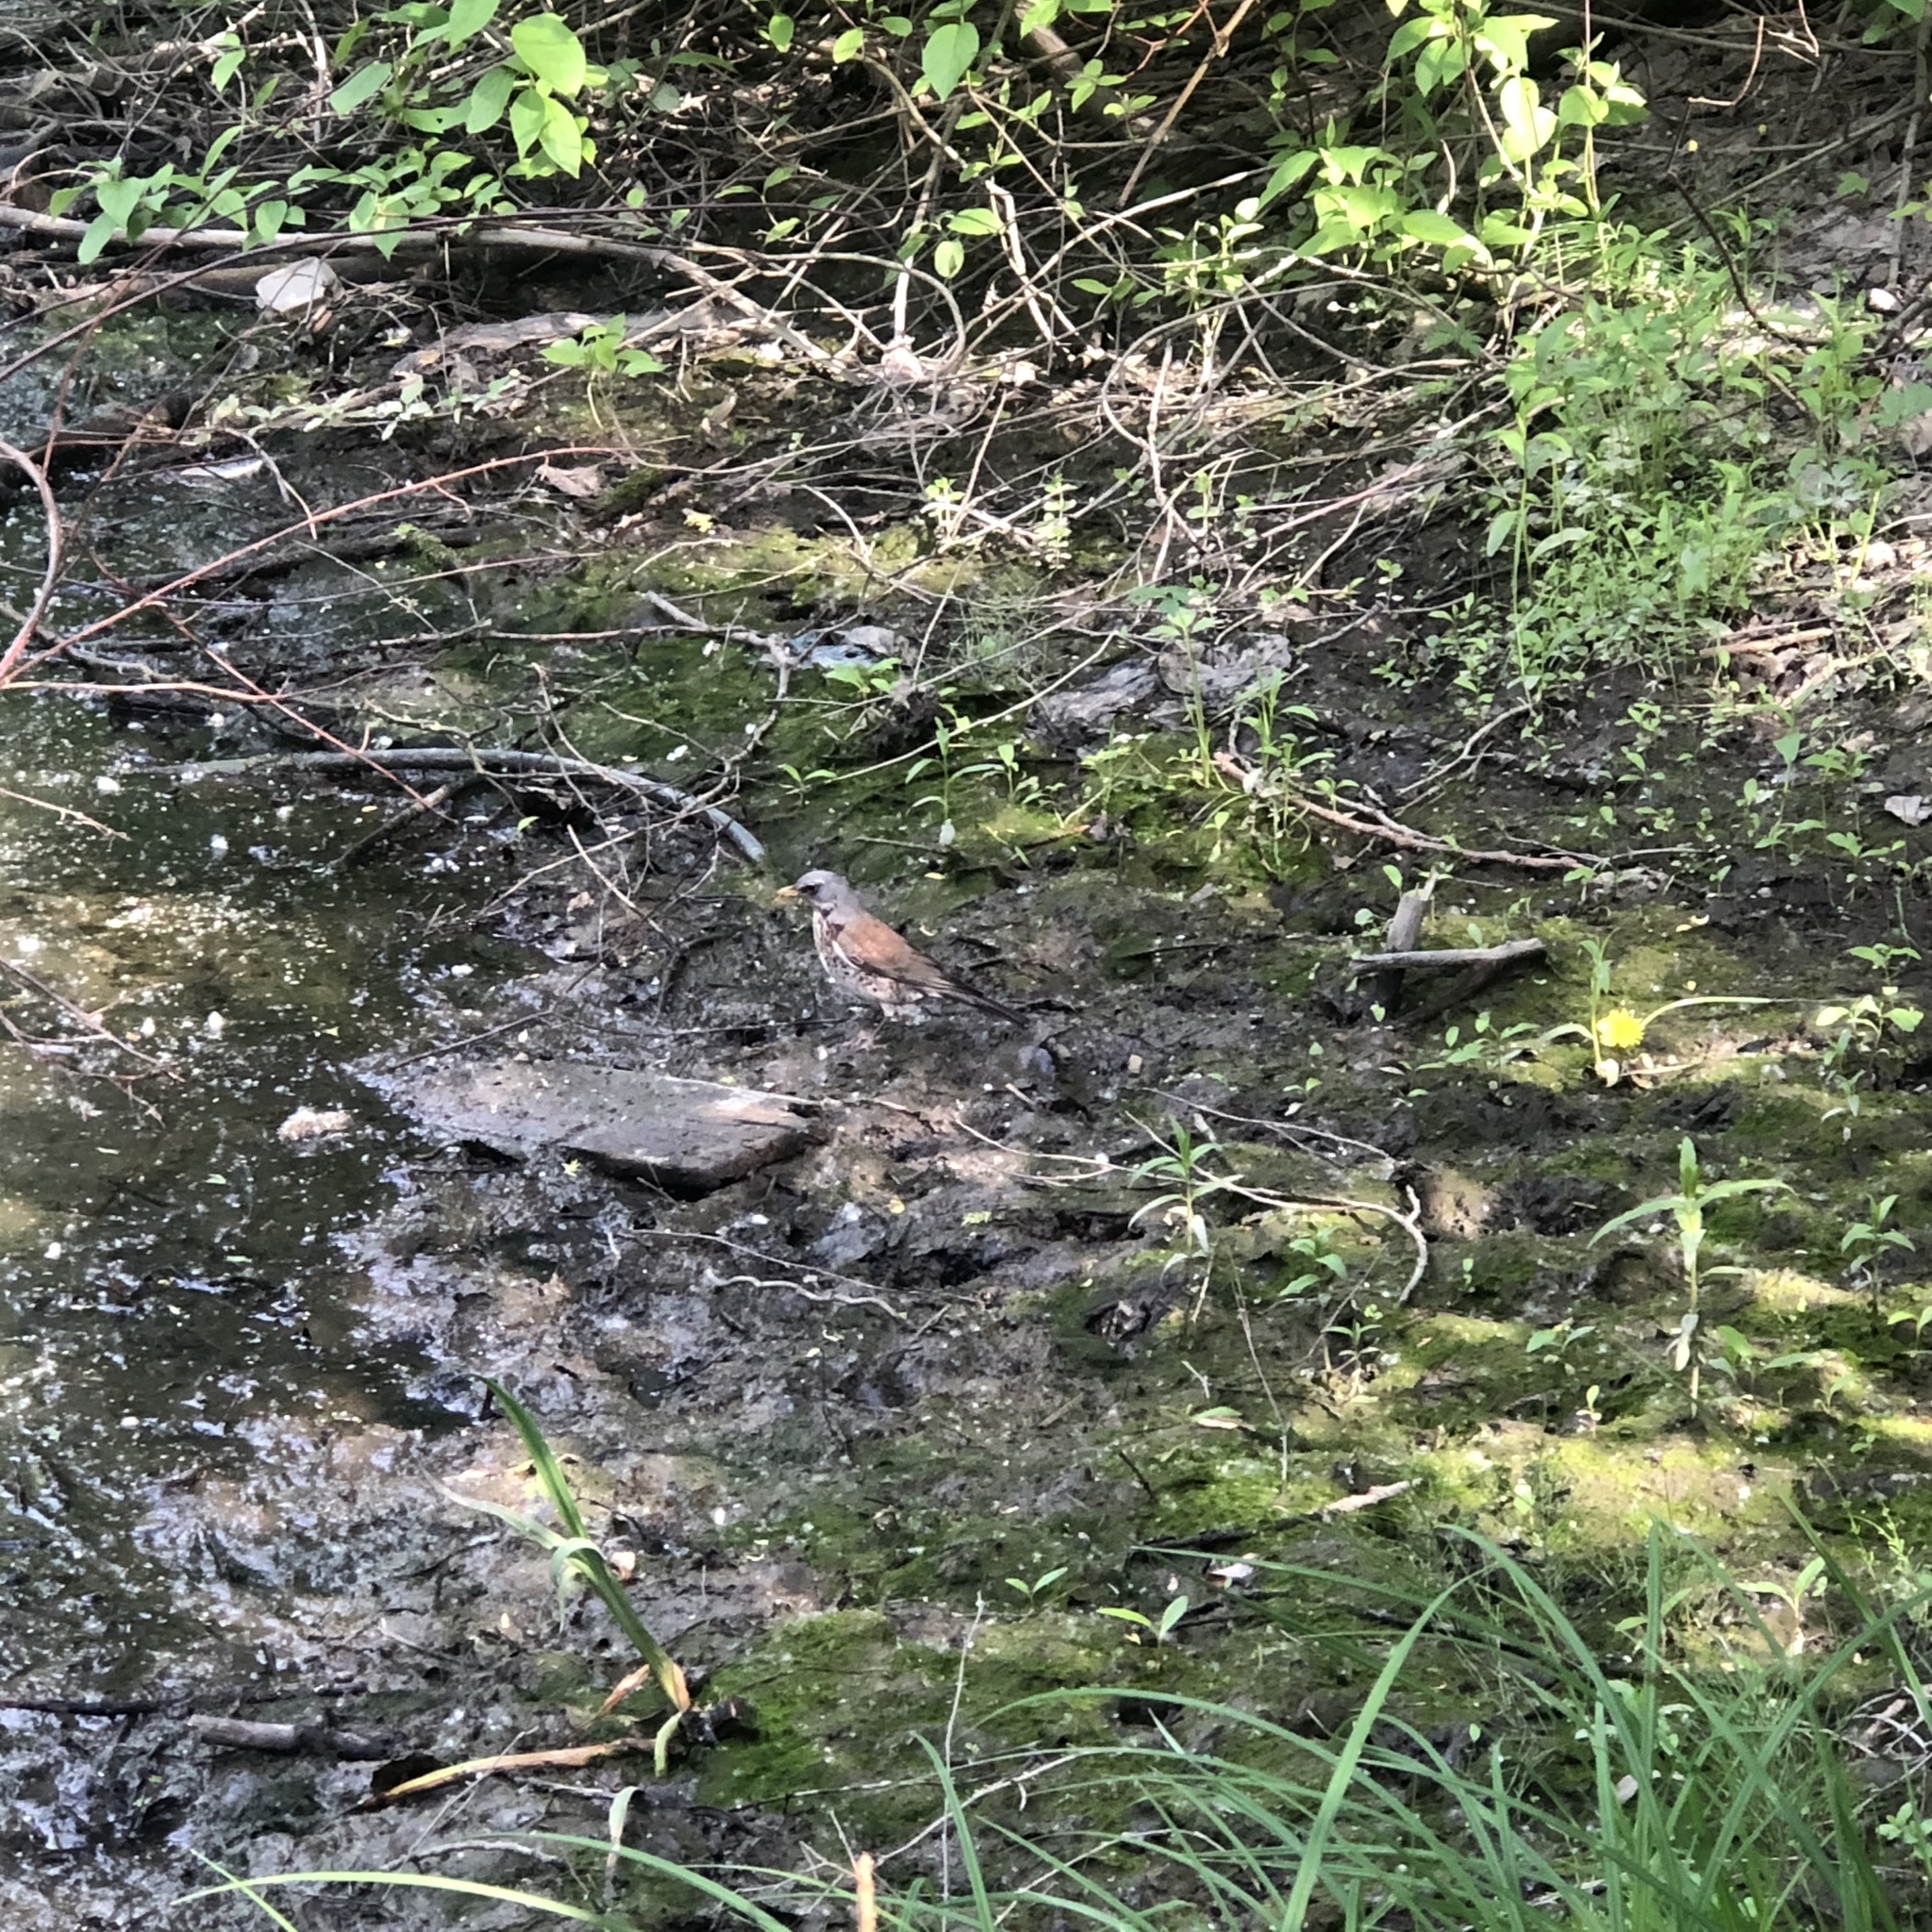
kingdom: Animalia
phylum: Chordata
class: Aves
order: Passeriformes
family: Turdidae
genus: Turdus
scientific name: Turdus pilaris
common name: Fieldfare
